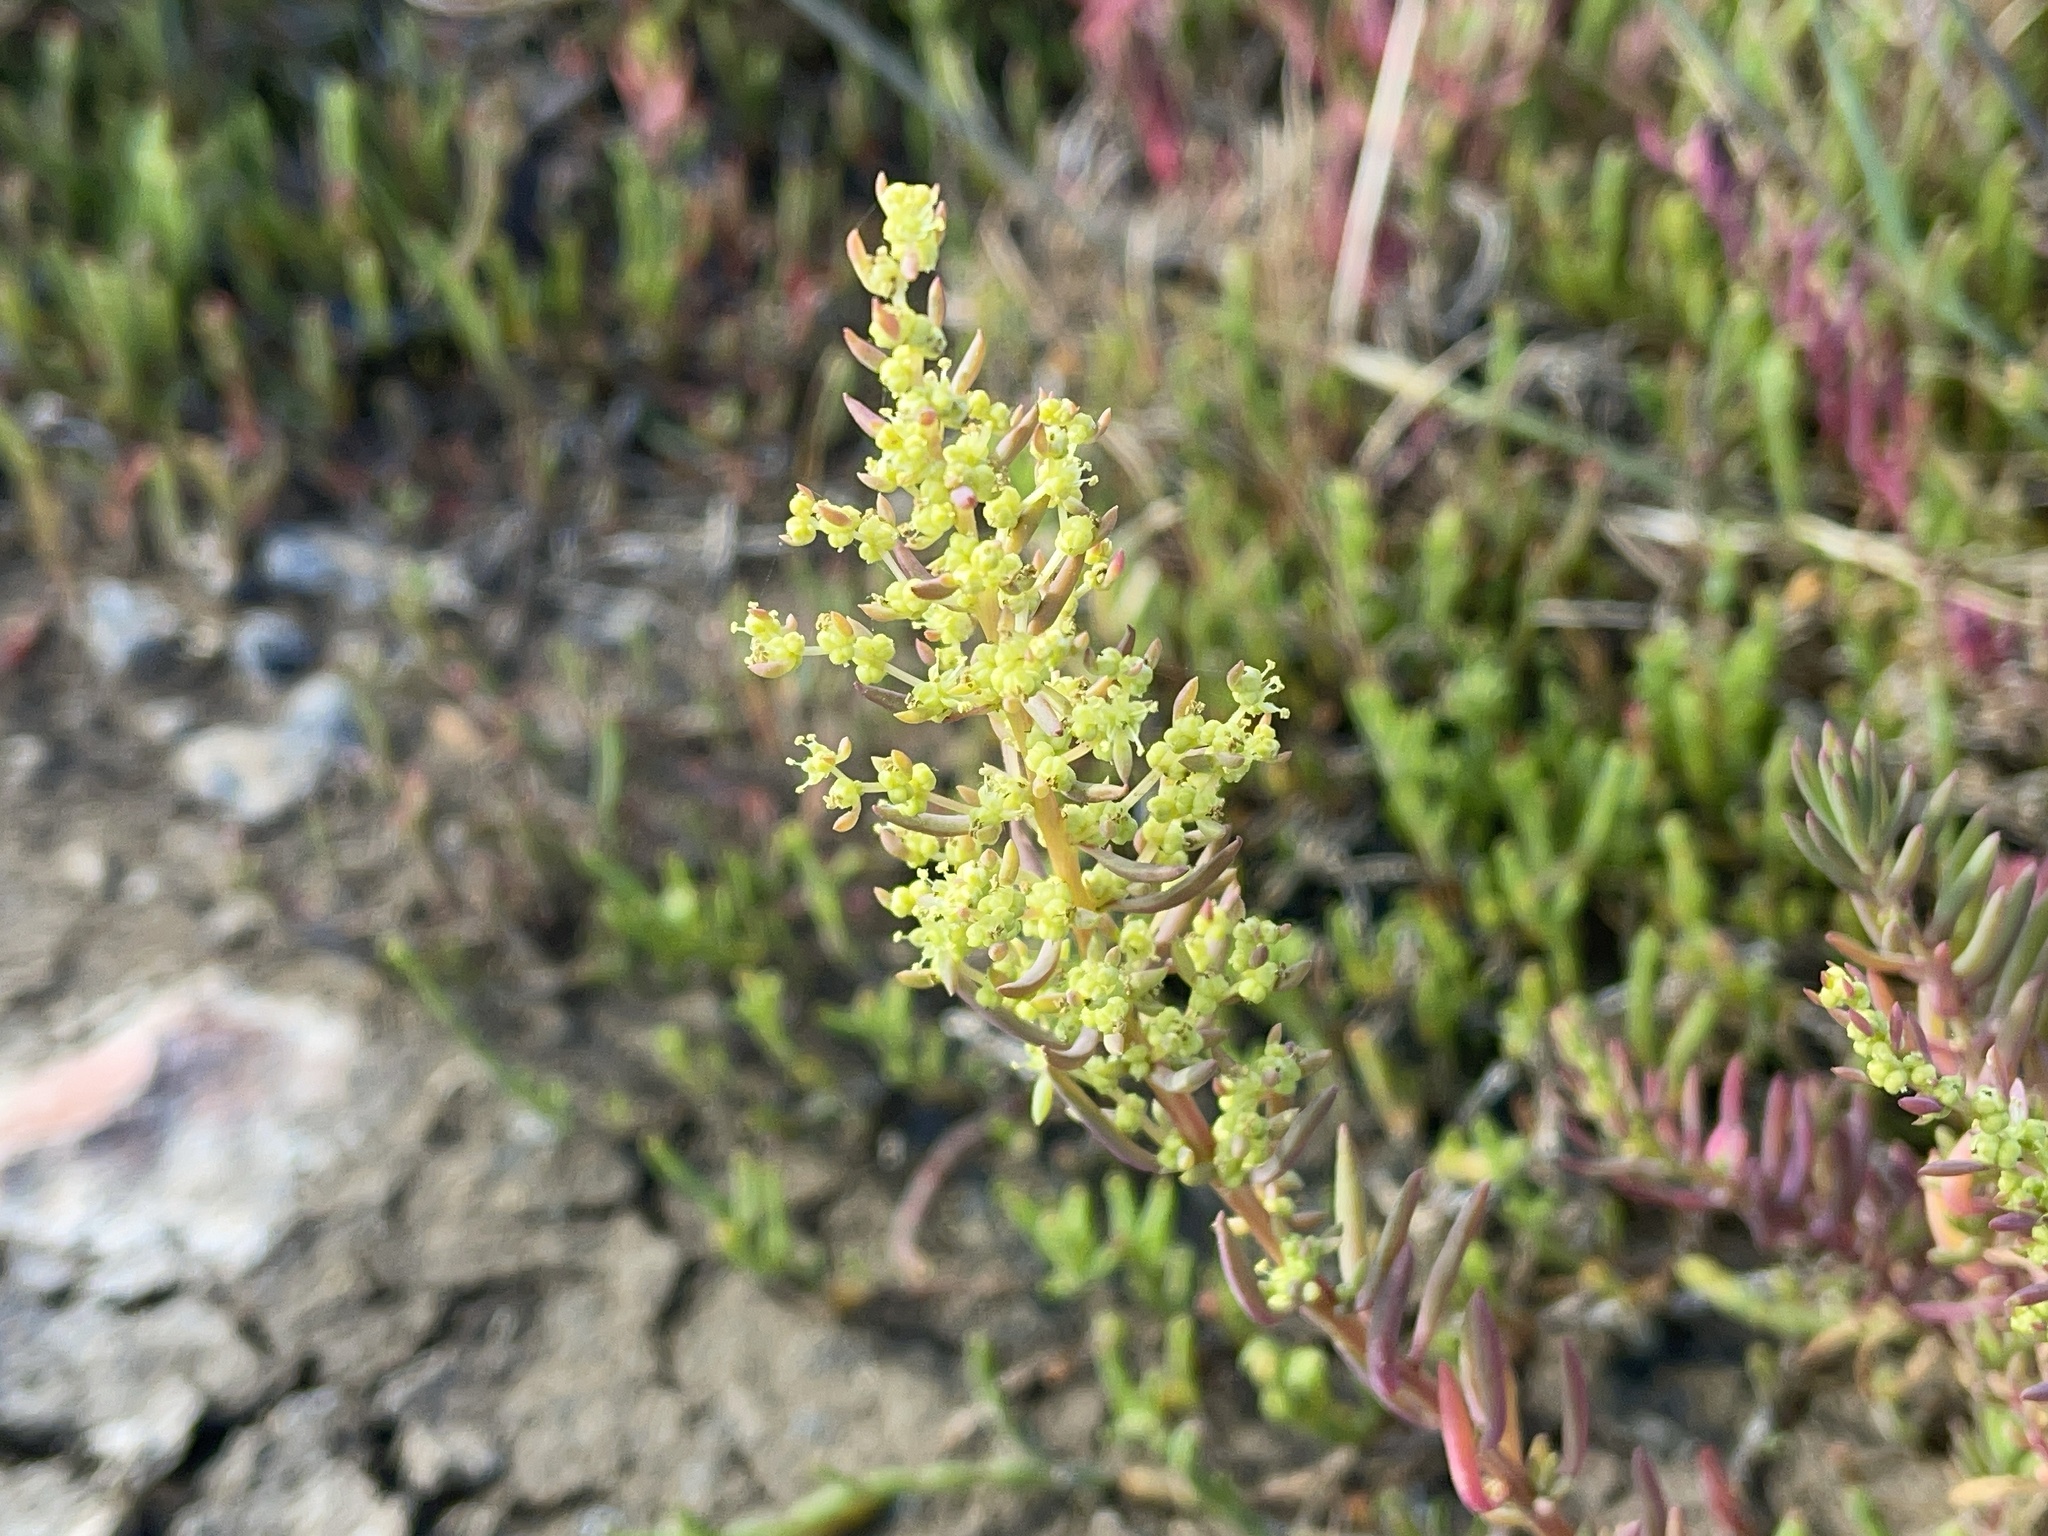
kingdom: Plantae
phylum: Tracheophyta
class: Magnoliopsida
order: Caryophyllales
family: Amaranthaceae
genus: Suaeda
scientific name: Suaeda australis
